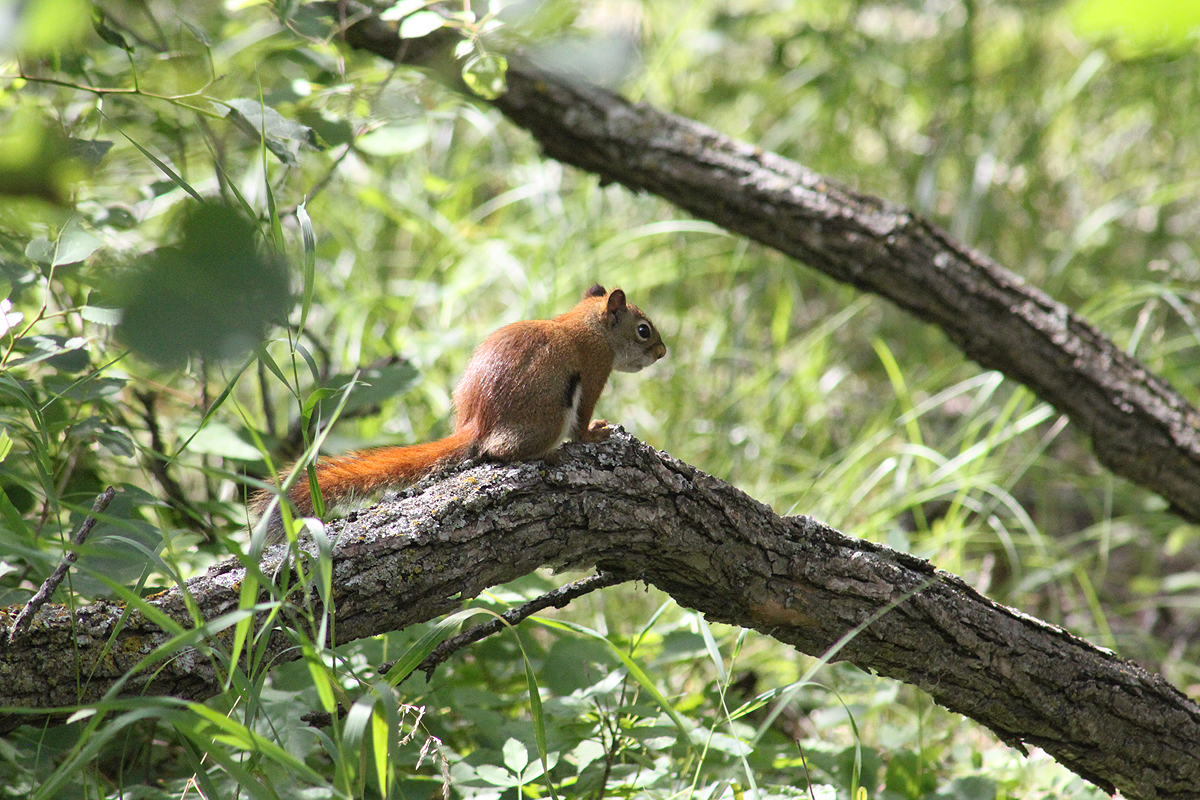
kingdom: Animalia
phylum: Chordata
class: Mammalia
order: Rodentia
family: Sciuridae
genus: Tamiasciurus
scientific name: Tamiasciurus hudsonicus
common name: Red squirrel
